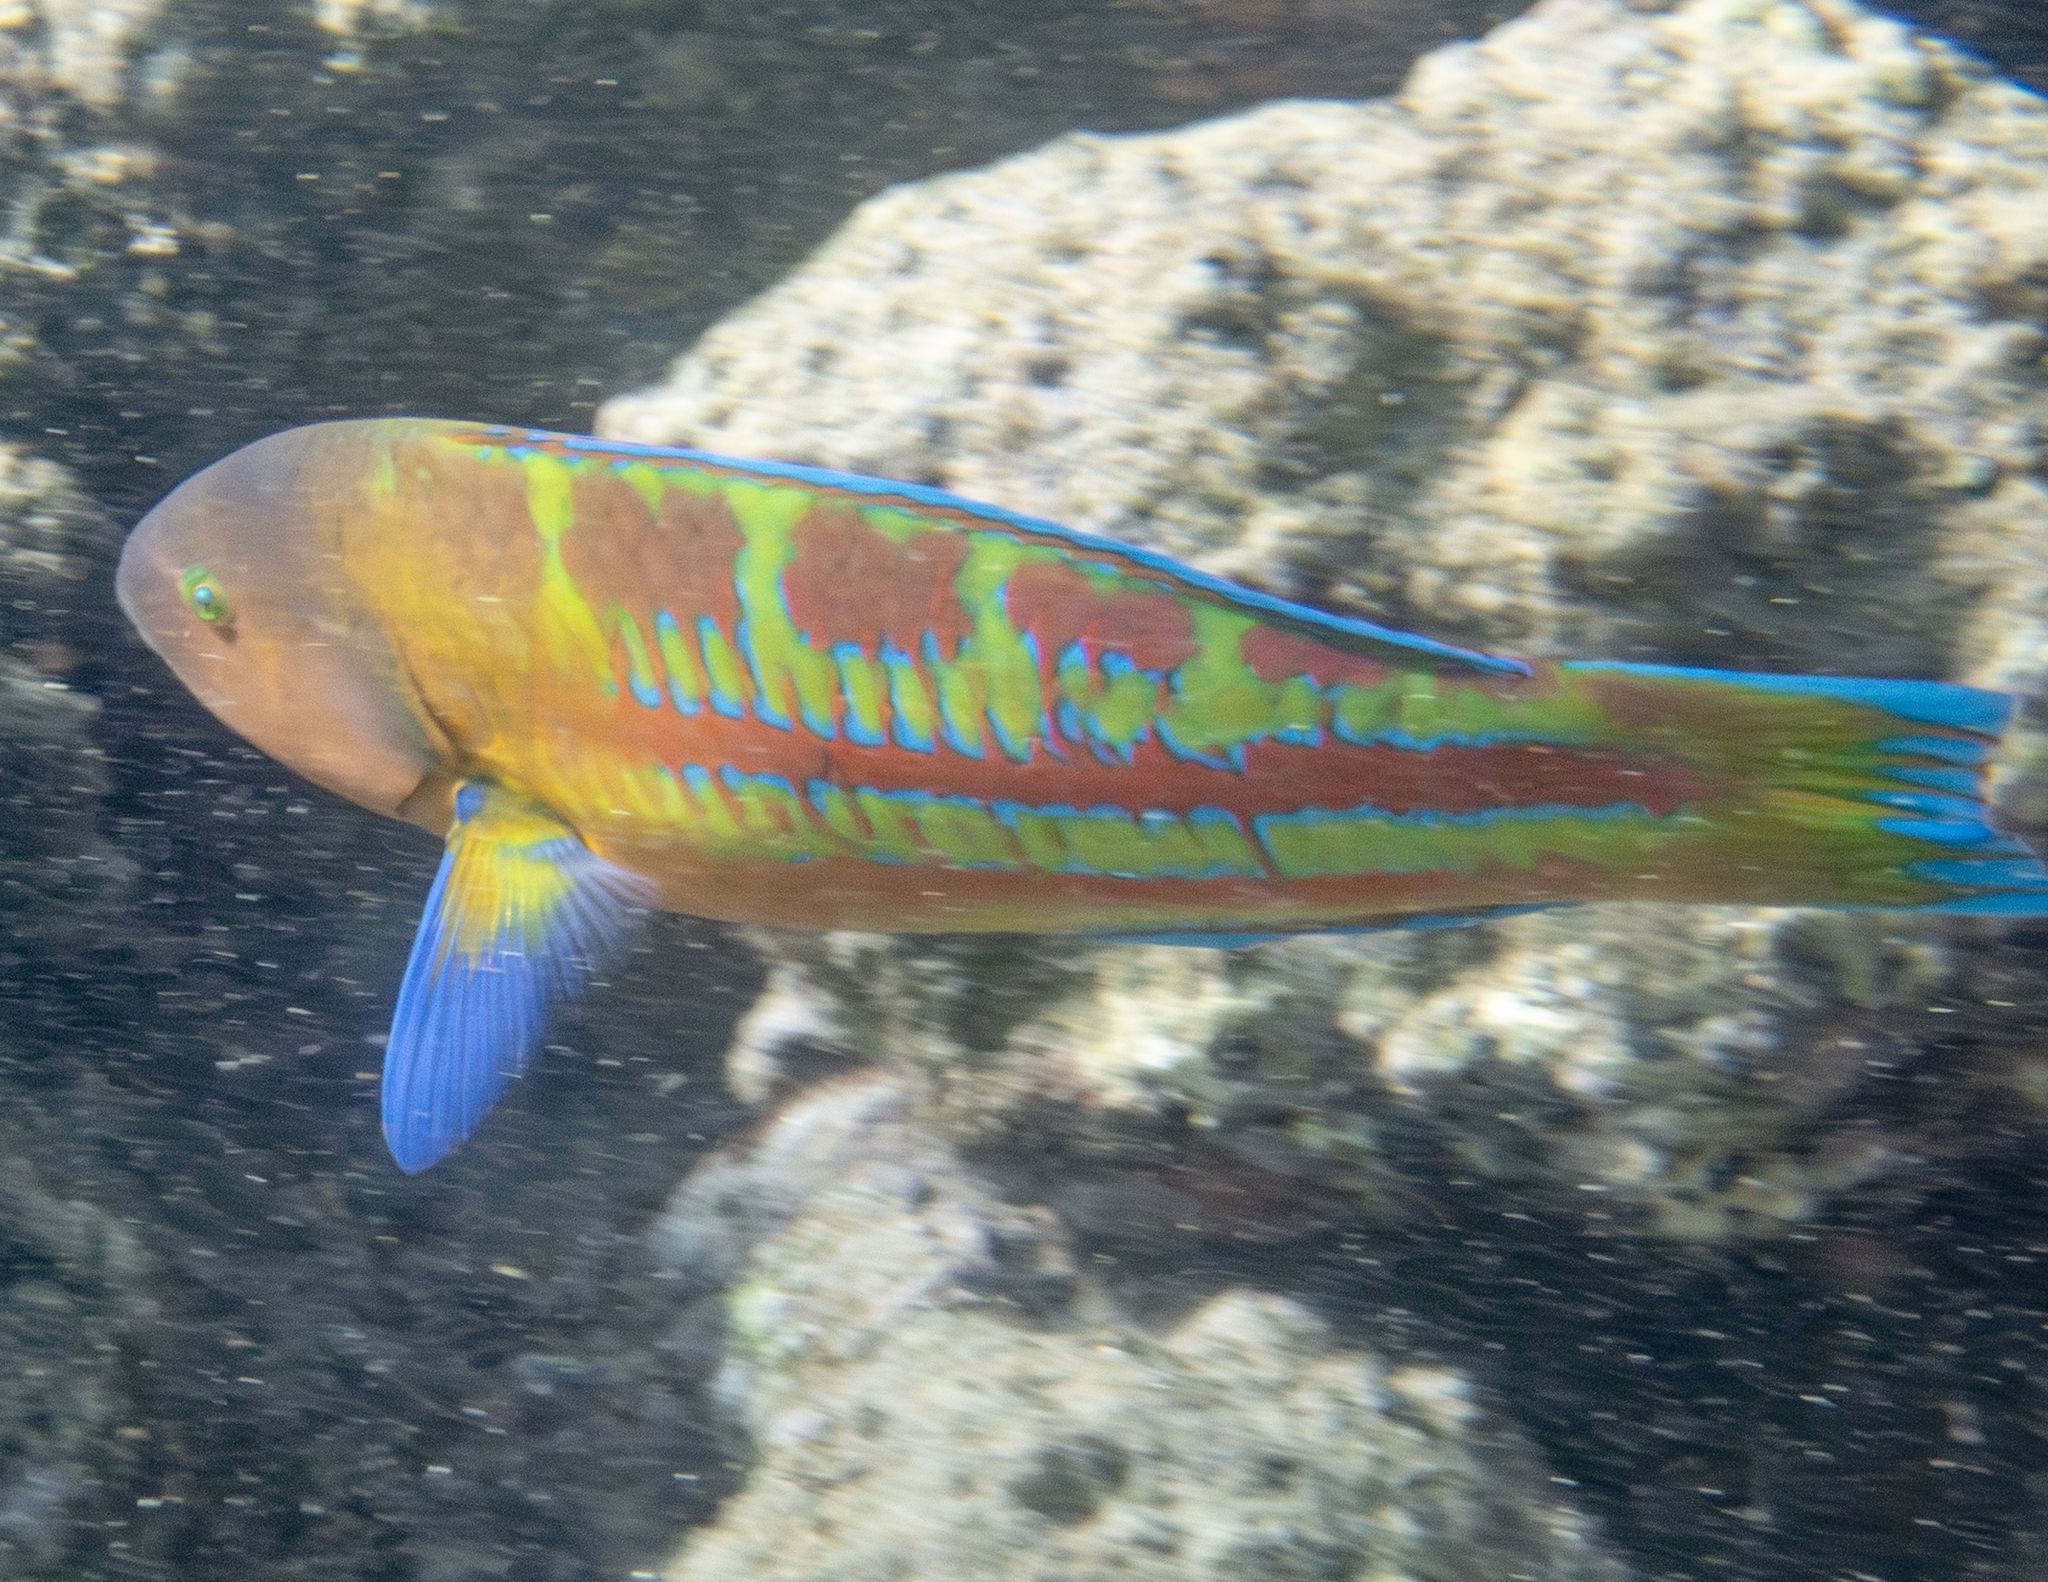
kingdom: Animalia
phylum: Chordata
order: Perciformes
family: Labridae
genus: Thalassoma
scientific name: Thalassoma trilobatum
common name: Christmas wrasse
